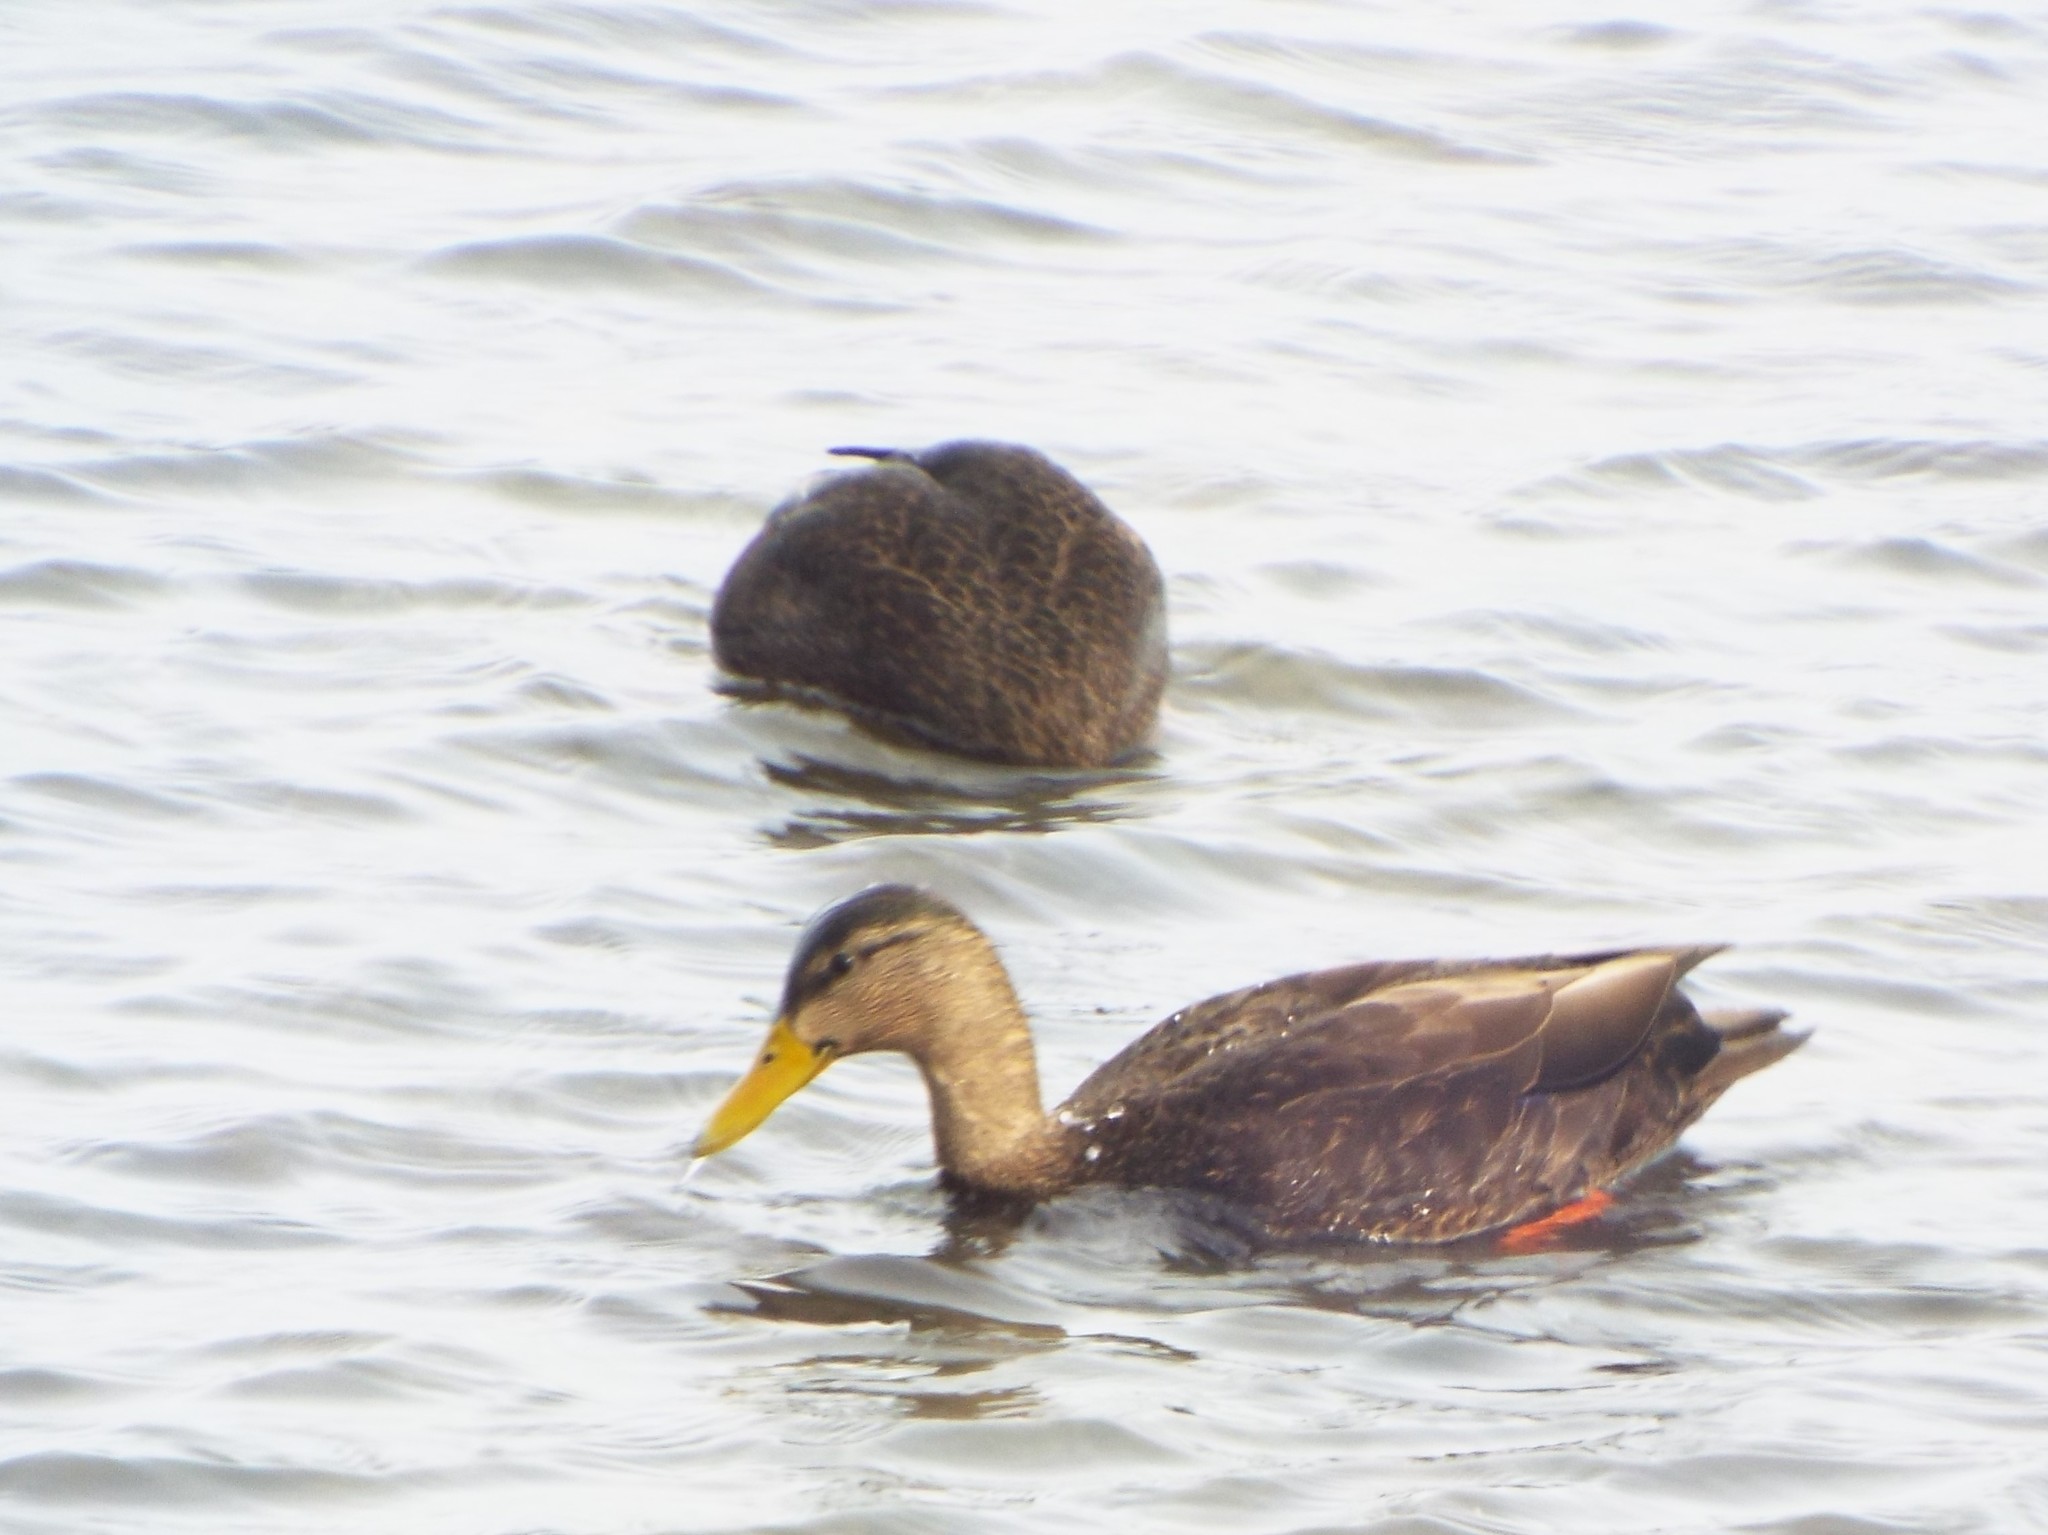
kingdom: Animalia
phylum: Chordata
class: Aves
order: Anseriformes
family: Anatidae
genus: Anas
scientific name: Anas rubripes
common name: American black duck
